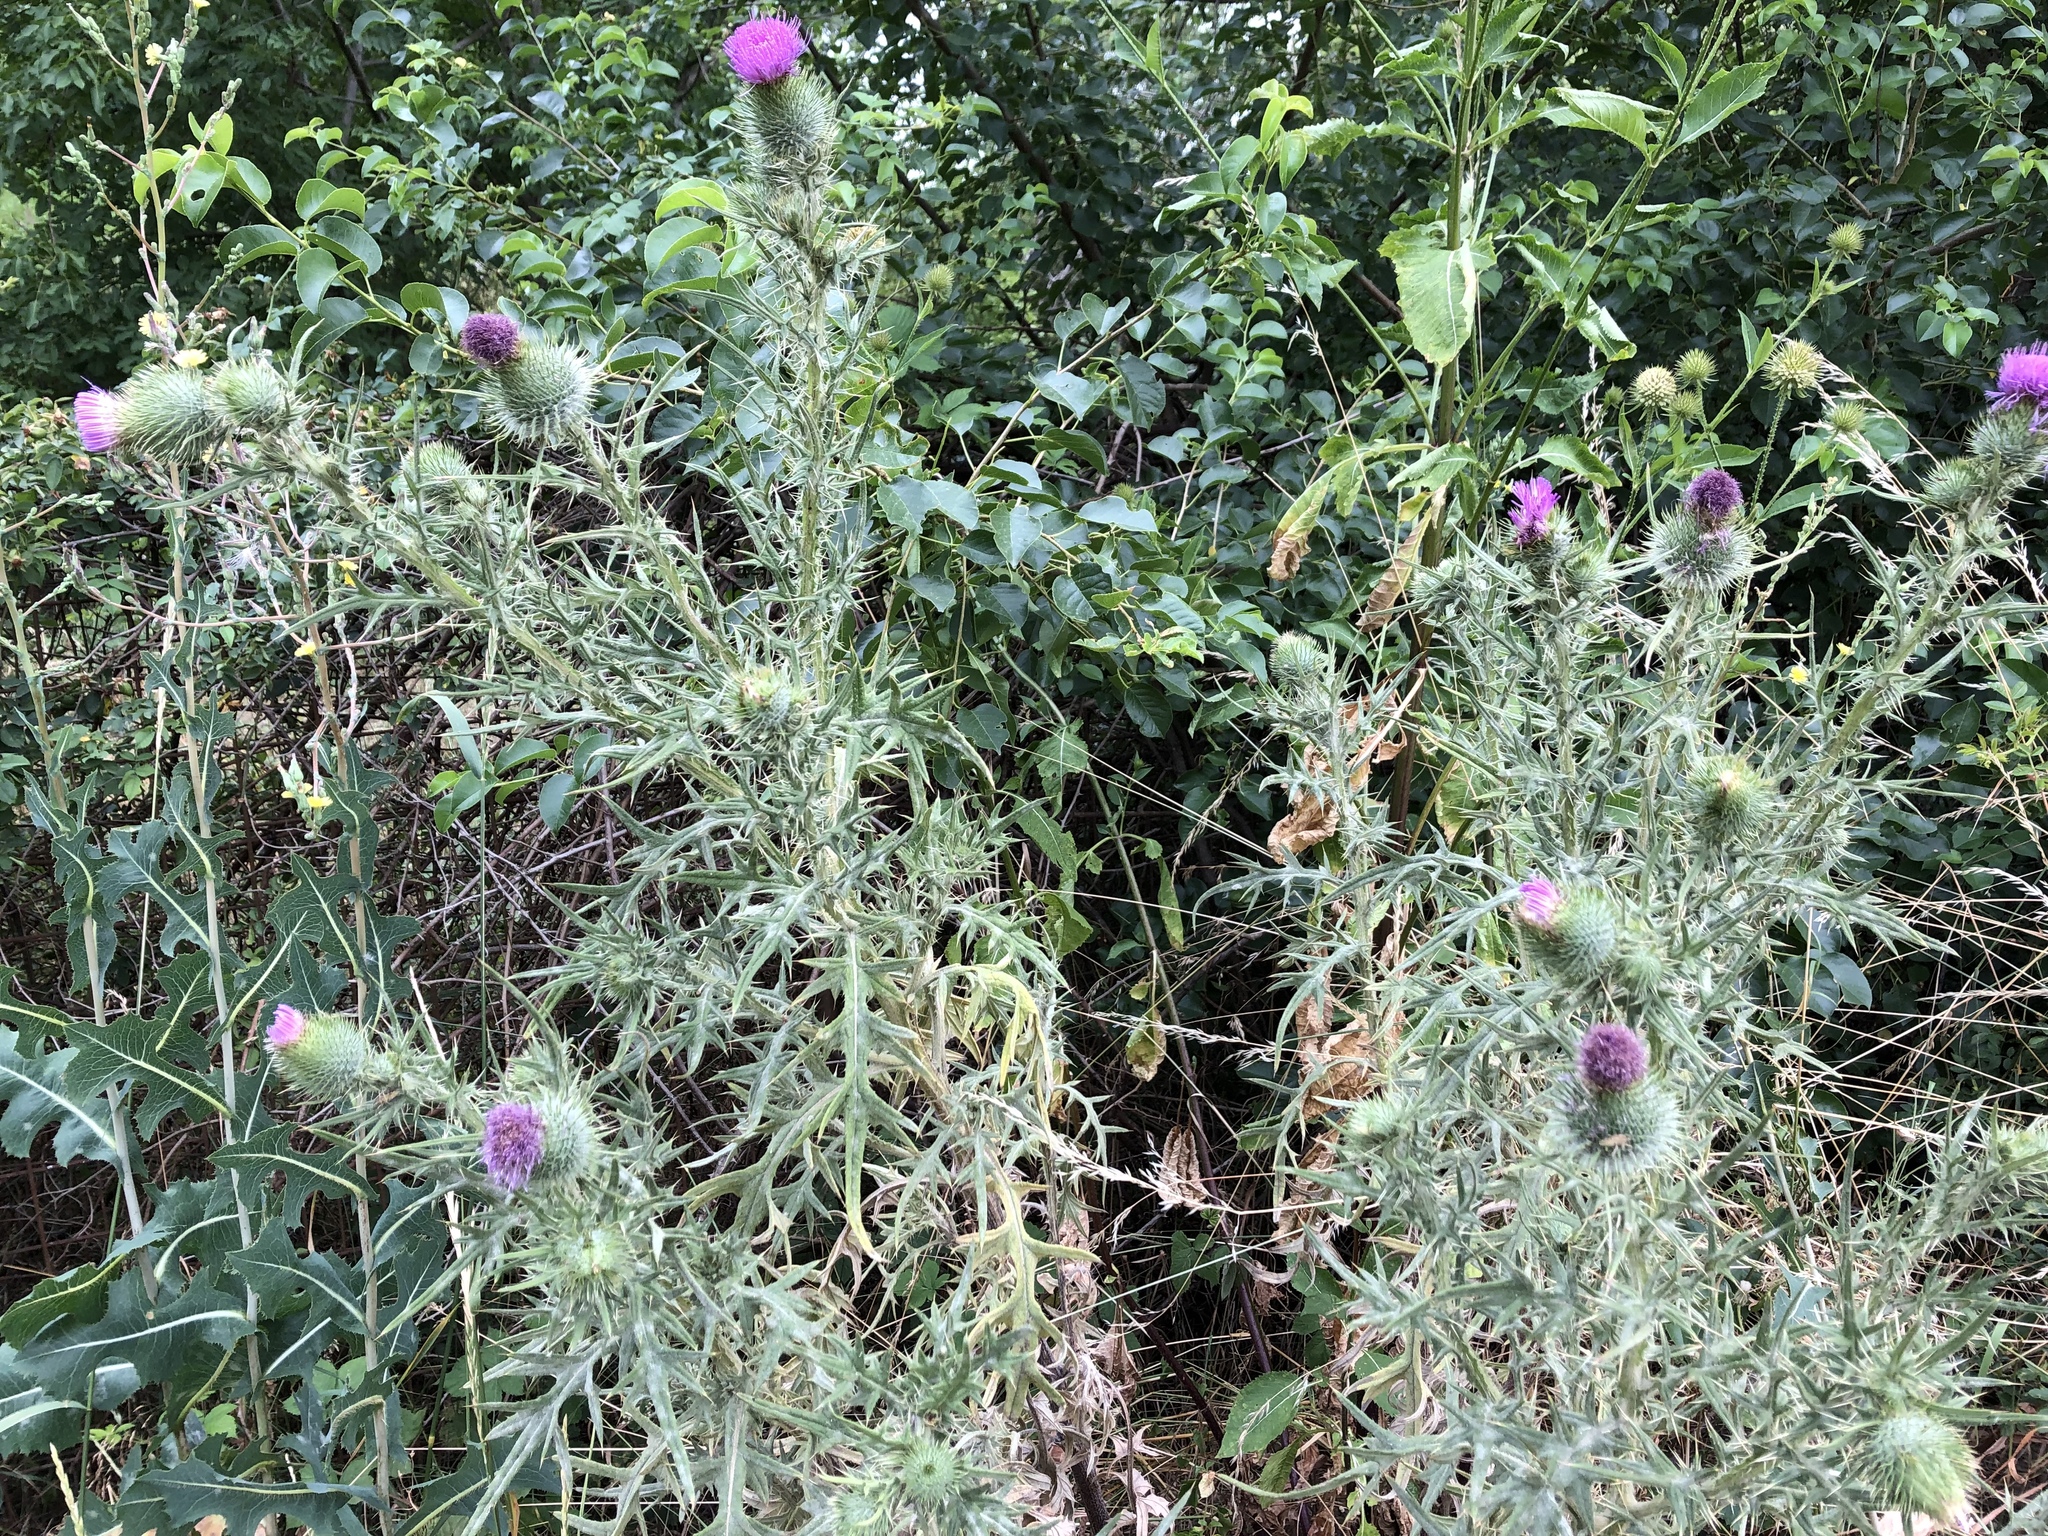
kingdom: Plantae
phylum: Tracheophyta
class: Magnoliopsida
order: Asterales
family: Asteraceae
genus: Cirsium
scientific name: Cirsium vulgare
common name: Bull thistle
